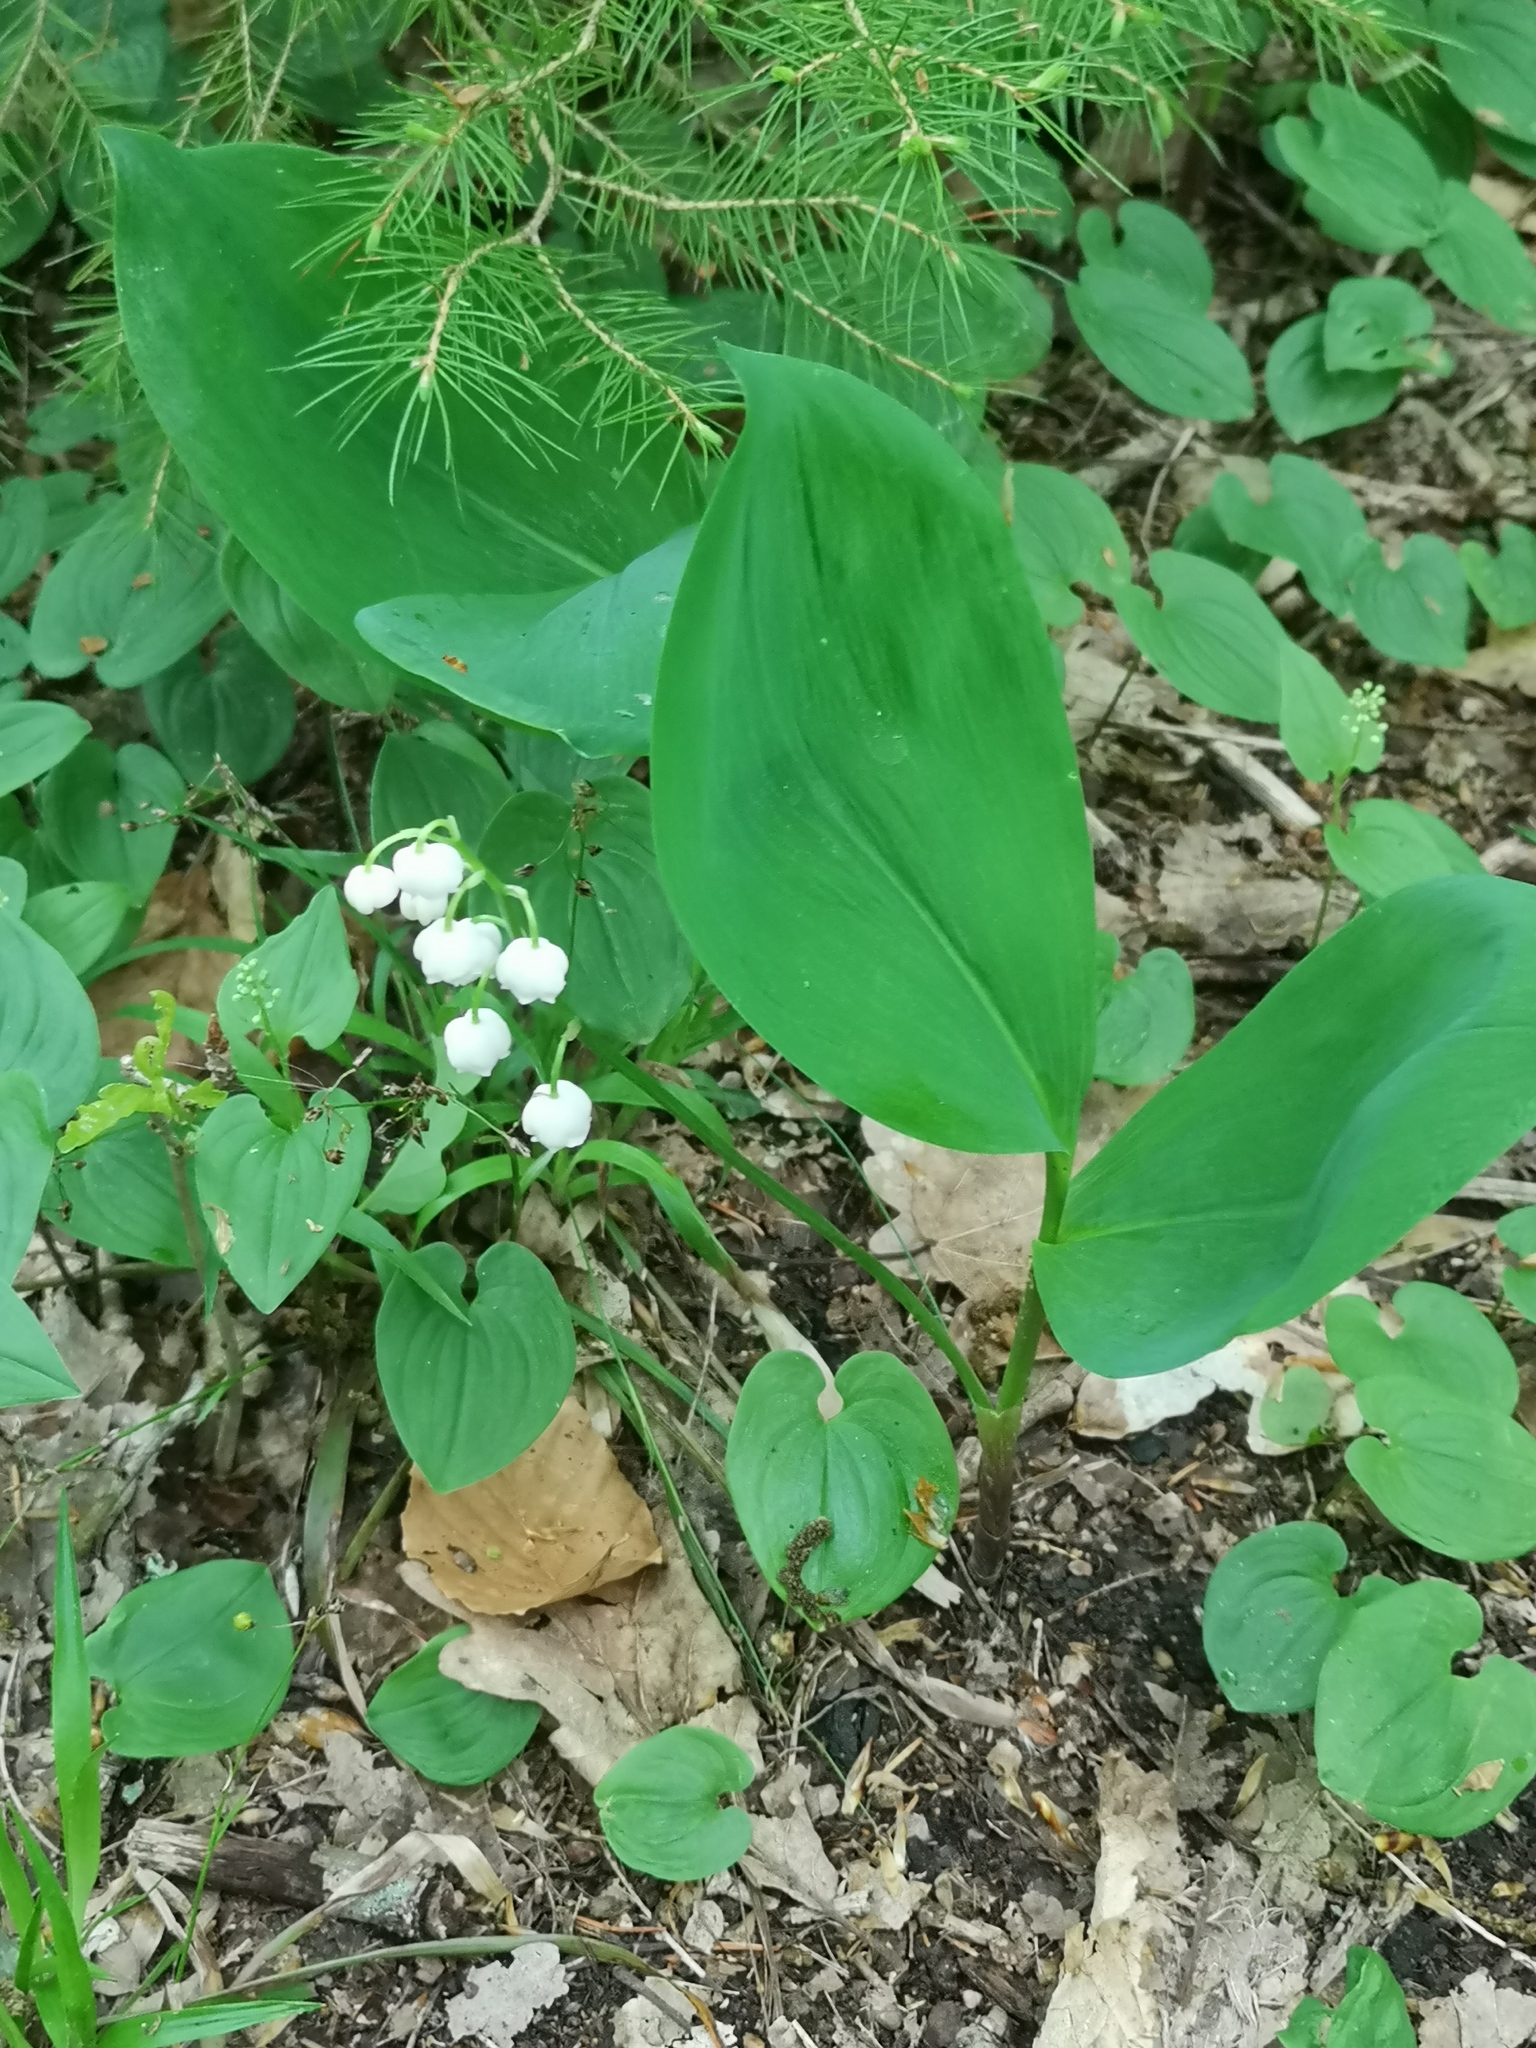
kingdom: Plantae
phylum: Tracheophyta
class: Liliopsida
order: Asparagales
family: Asparagaceae
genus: Convallaria
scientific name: Convallaria majalis
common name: Lily-of-the-valley
